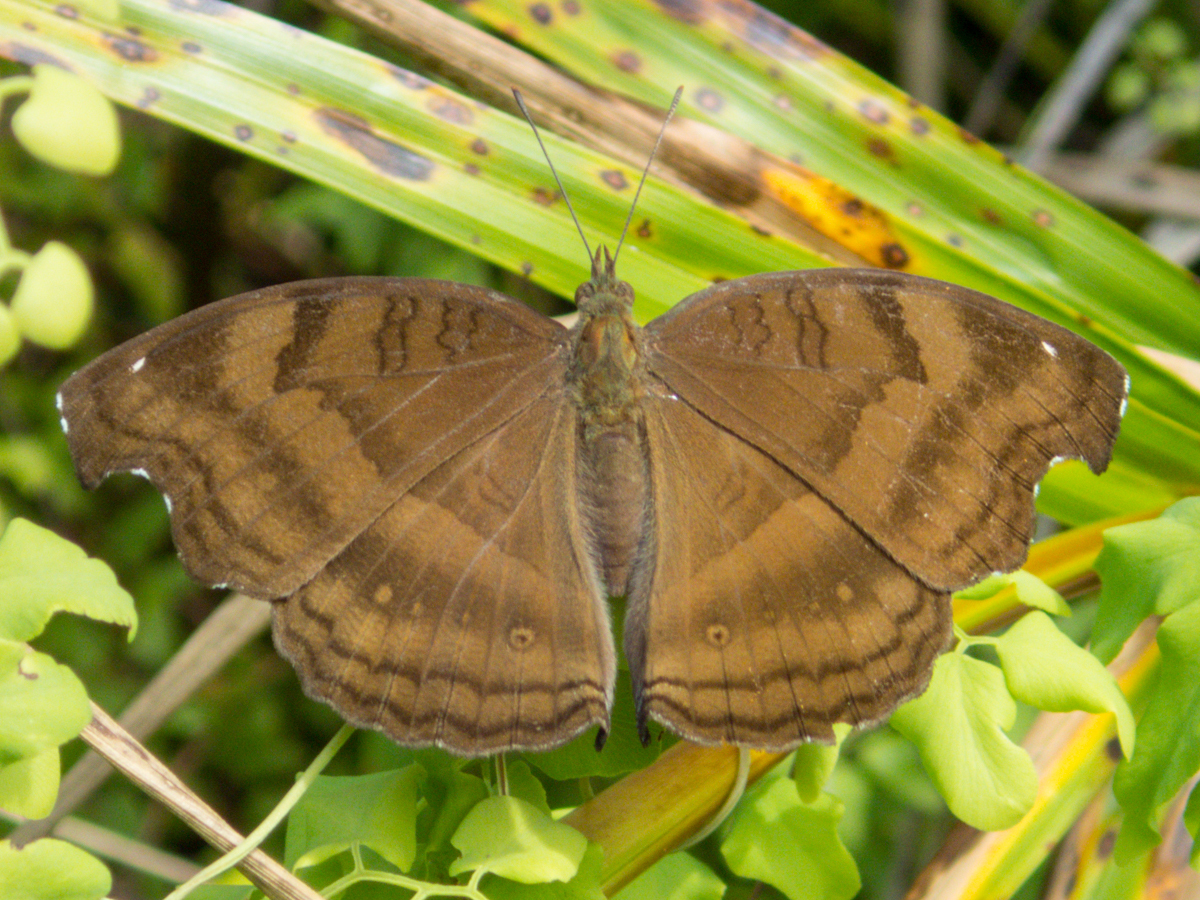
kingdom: Animalia
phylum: Arthropoda
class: Insecta
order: Lepidoptera
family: Nymphalidae
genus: Junonia
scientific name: Junonia iphita
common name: Chocolate pansy
